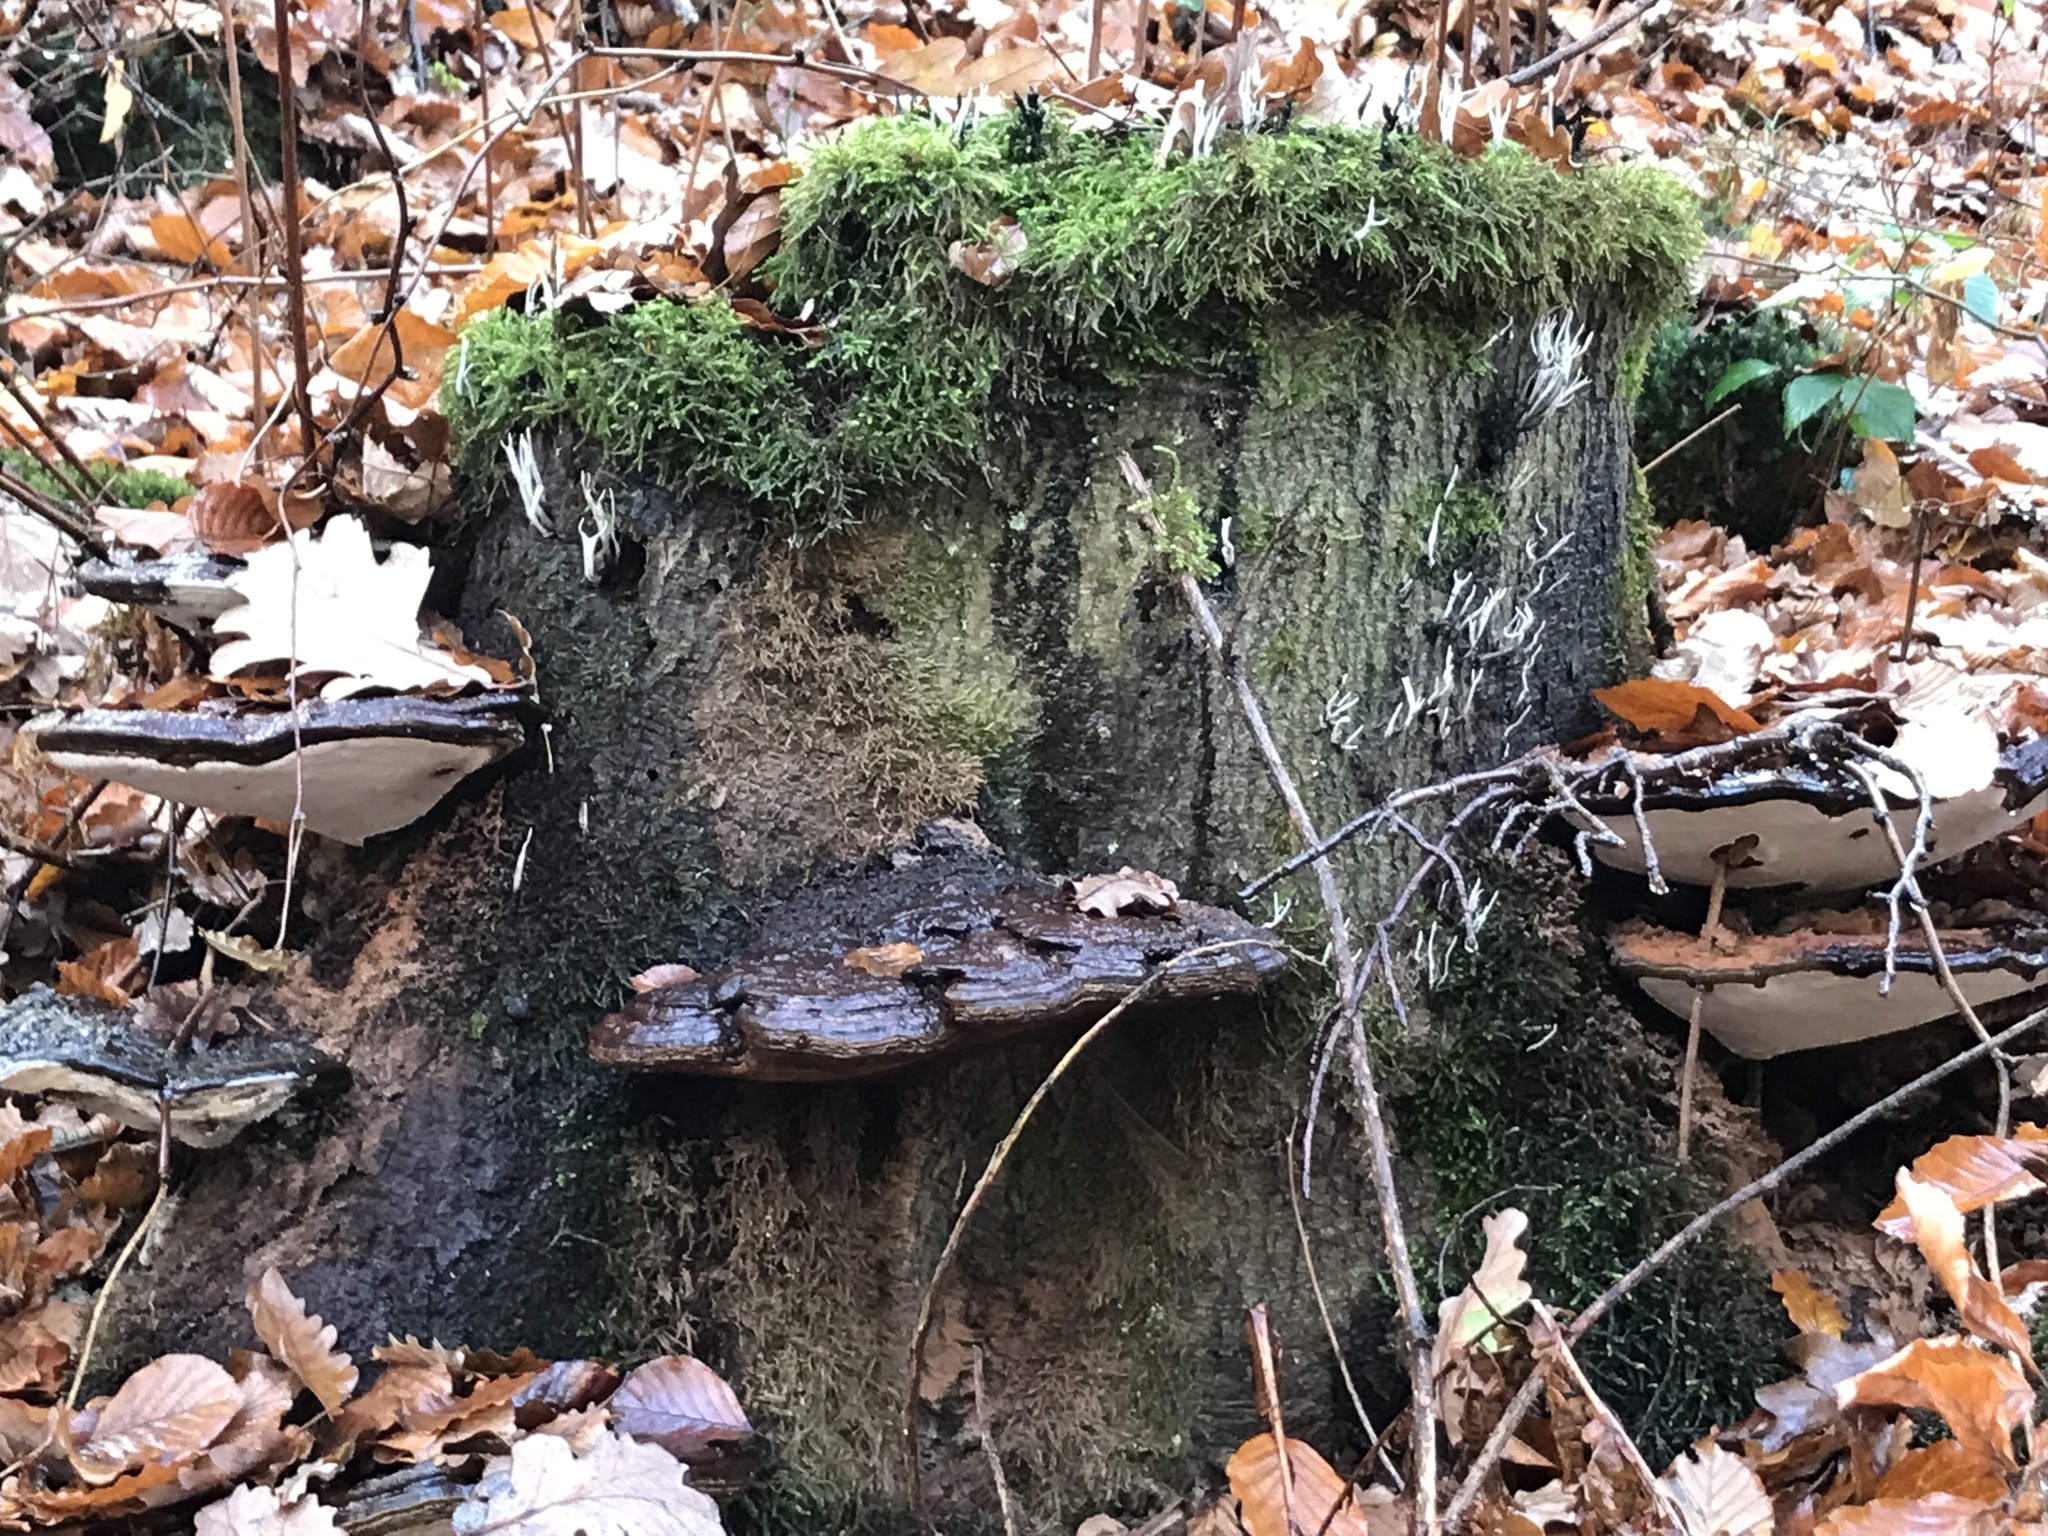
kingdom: Fungi
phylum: Basidiomycota
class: Agaricomycetes
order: Polyporales
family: Polyporaceae
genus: Ganoderma
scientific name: Ganoderma applanatum
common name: Artist's bracket
